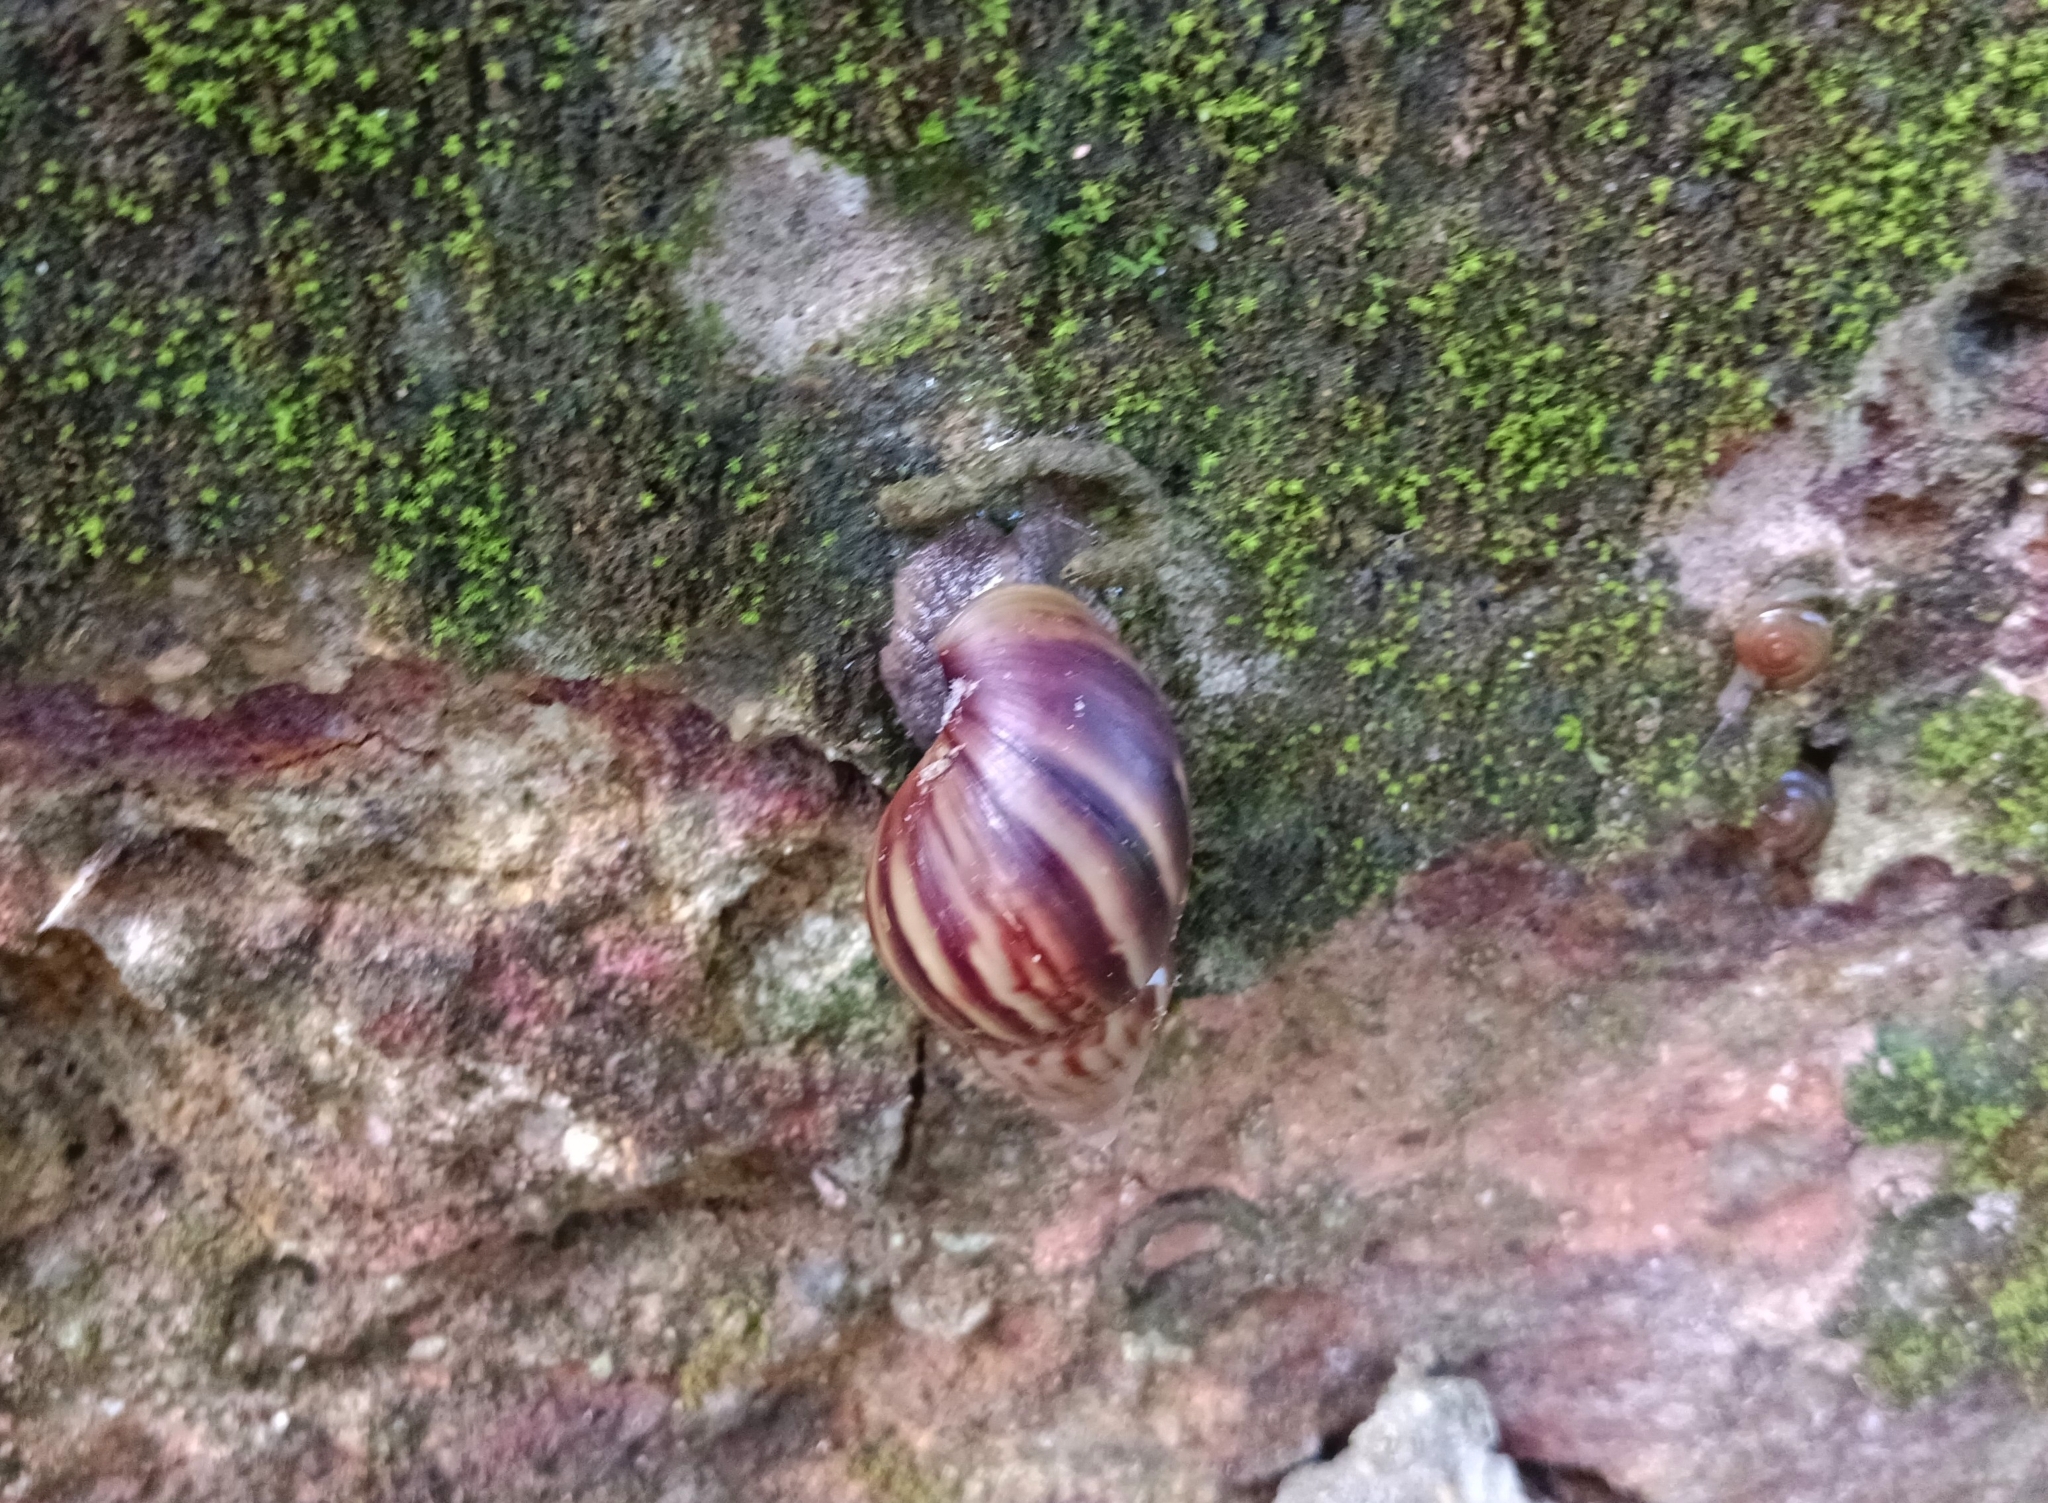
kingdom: Animalia
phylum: Mollusca
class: Gastropoda
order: Stylommatophora
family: Achatinidae
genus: Lissachatina
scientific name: Lissachatina fulica
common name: Giant african snail
